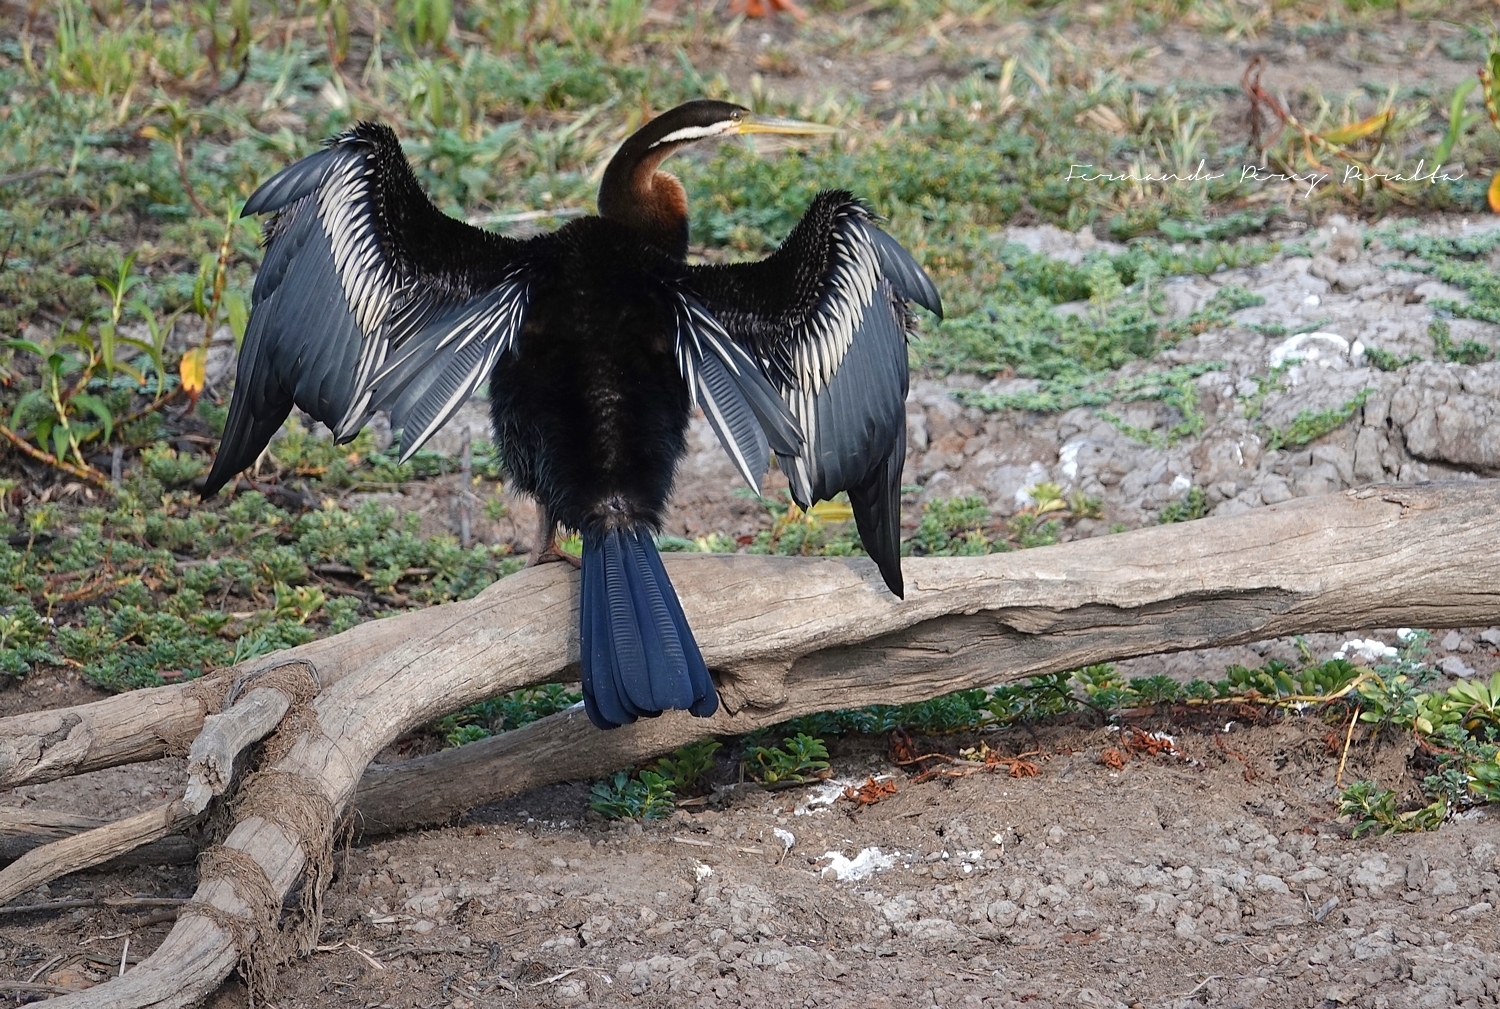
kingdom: Animalia
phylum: Chordata
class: Aves
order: Suliformes
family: Anhingidae
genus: Anhinga
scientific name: Anhinga novaehollandiae
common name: Australasian darter
